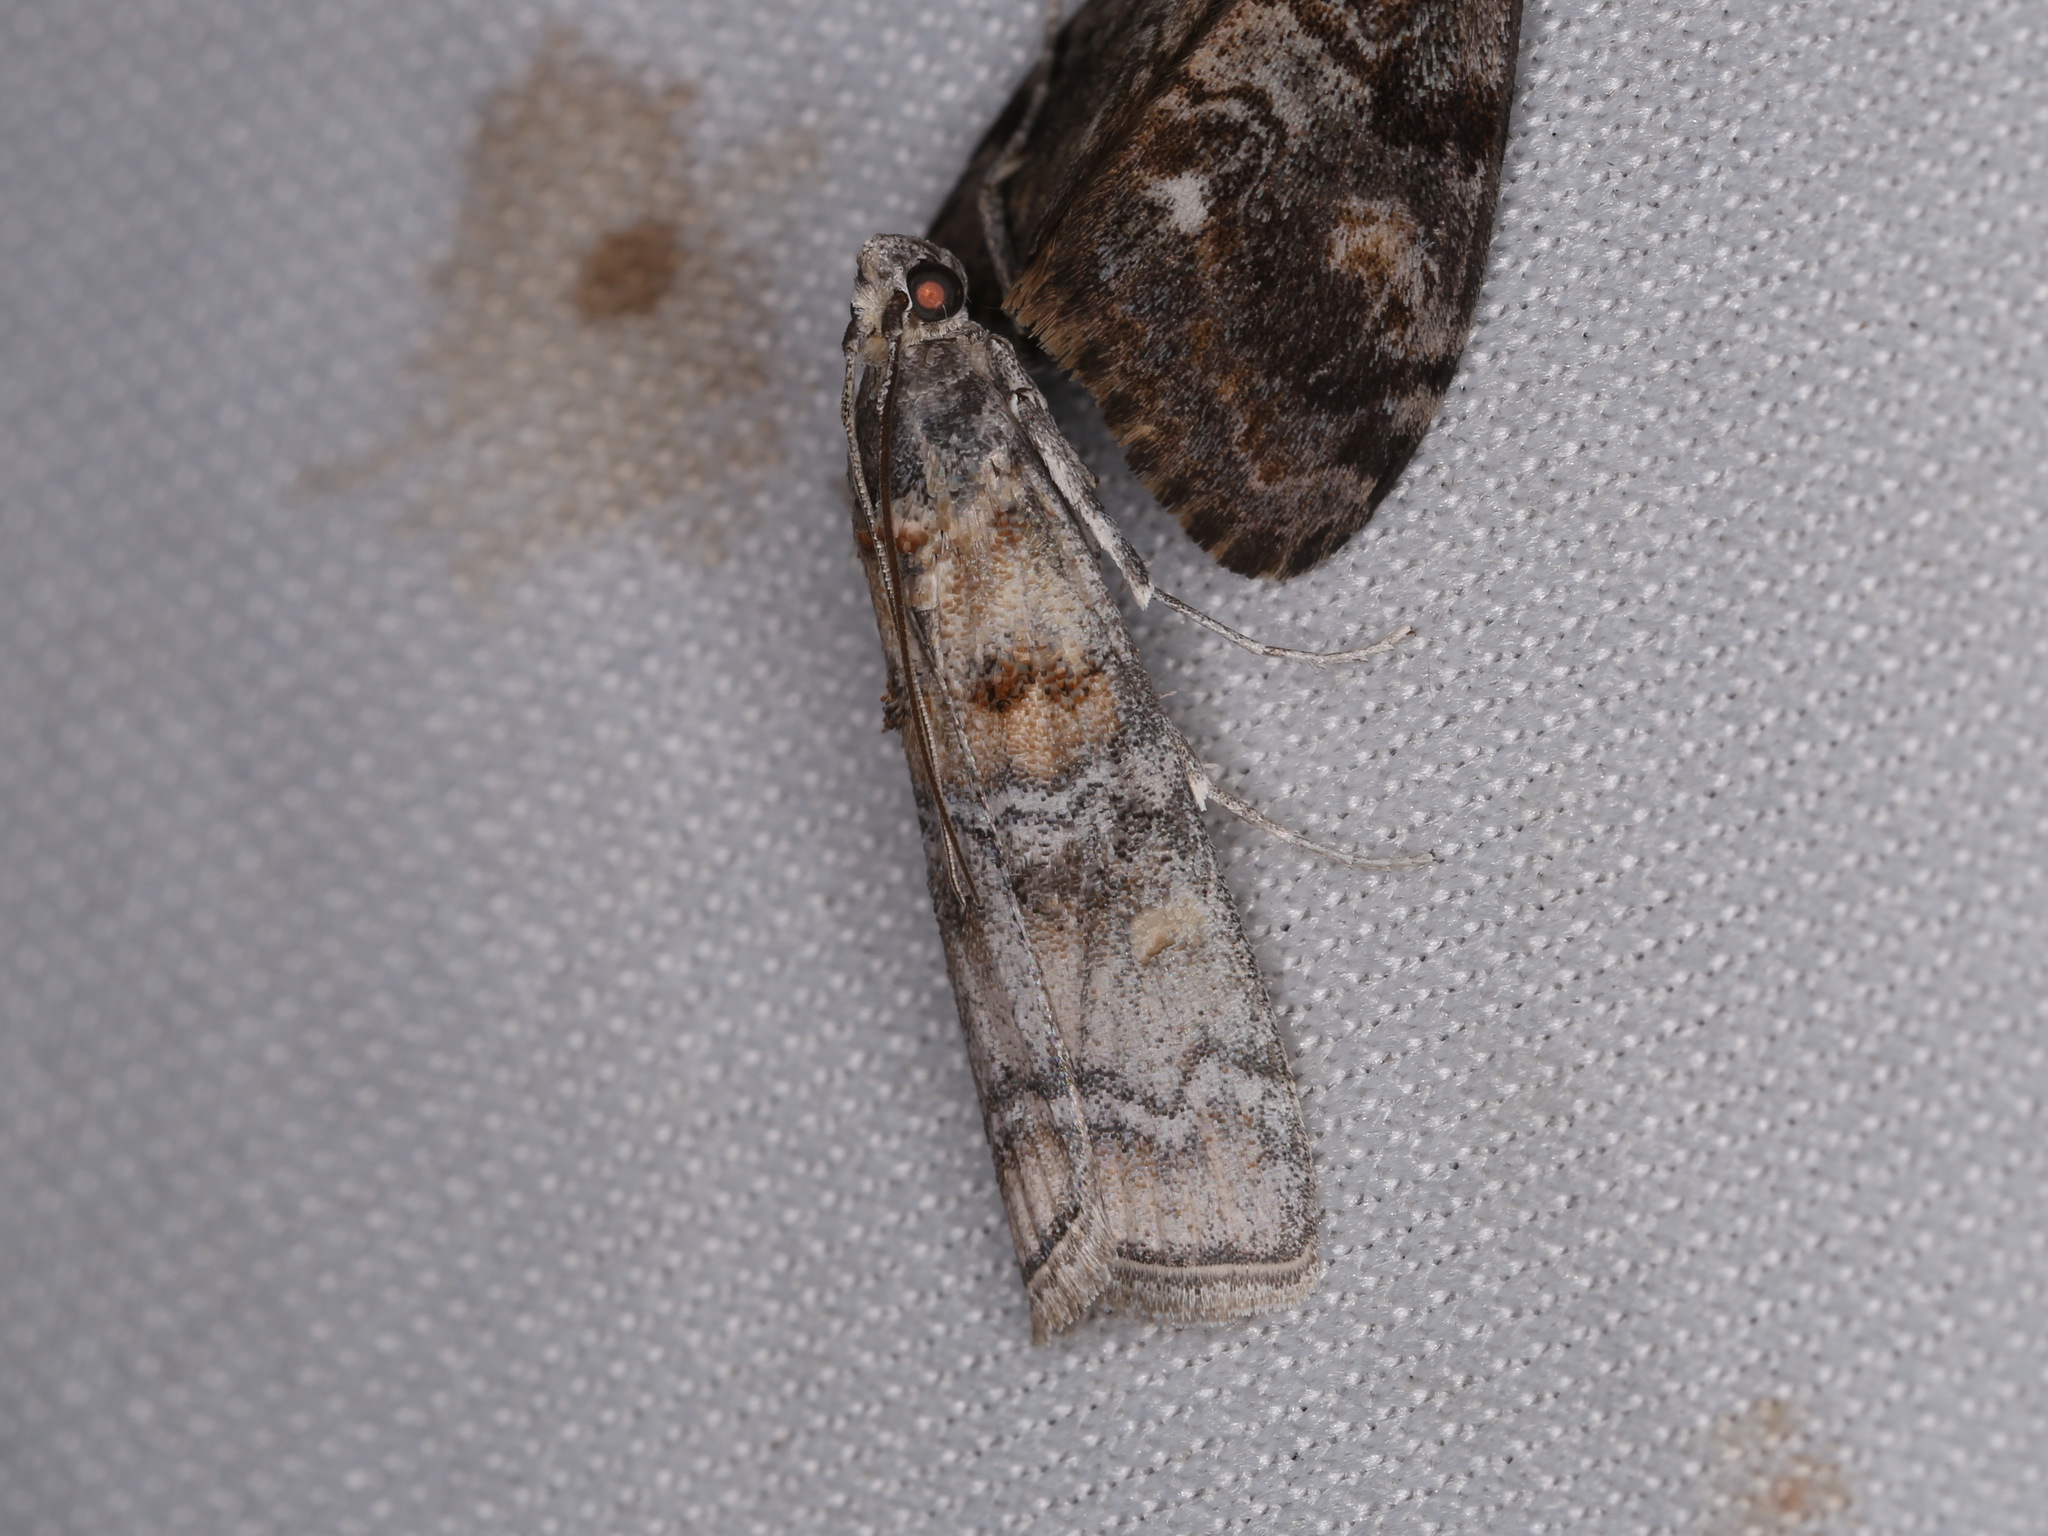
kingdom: Animalia
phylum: Arthropoda
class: Insecta
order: Lepidoptera
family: Pyralidae
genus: Dioryctria
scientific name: Dioryctria fordi
